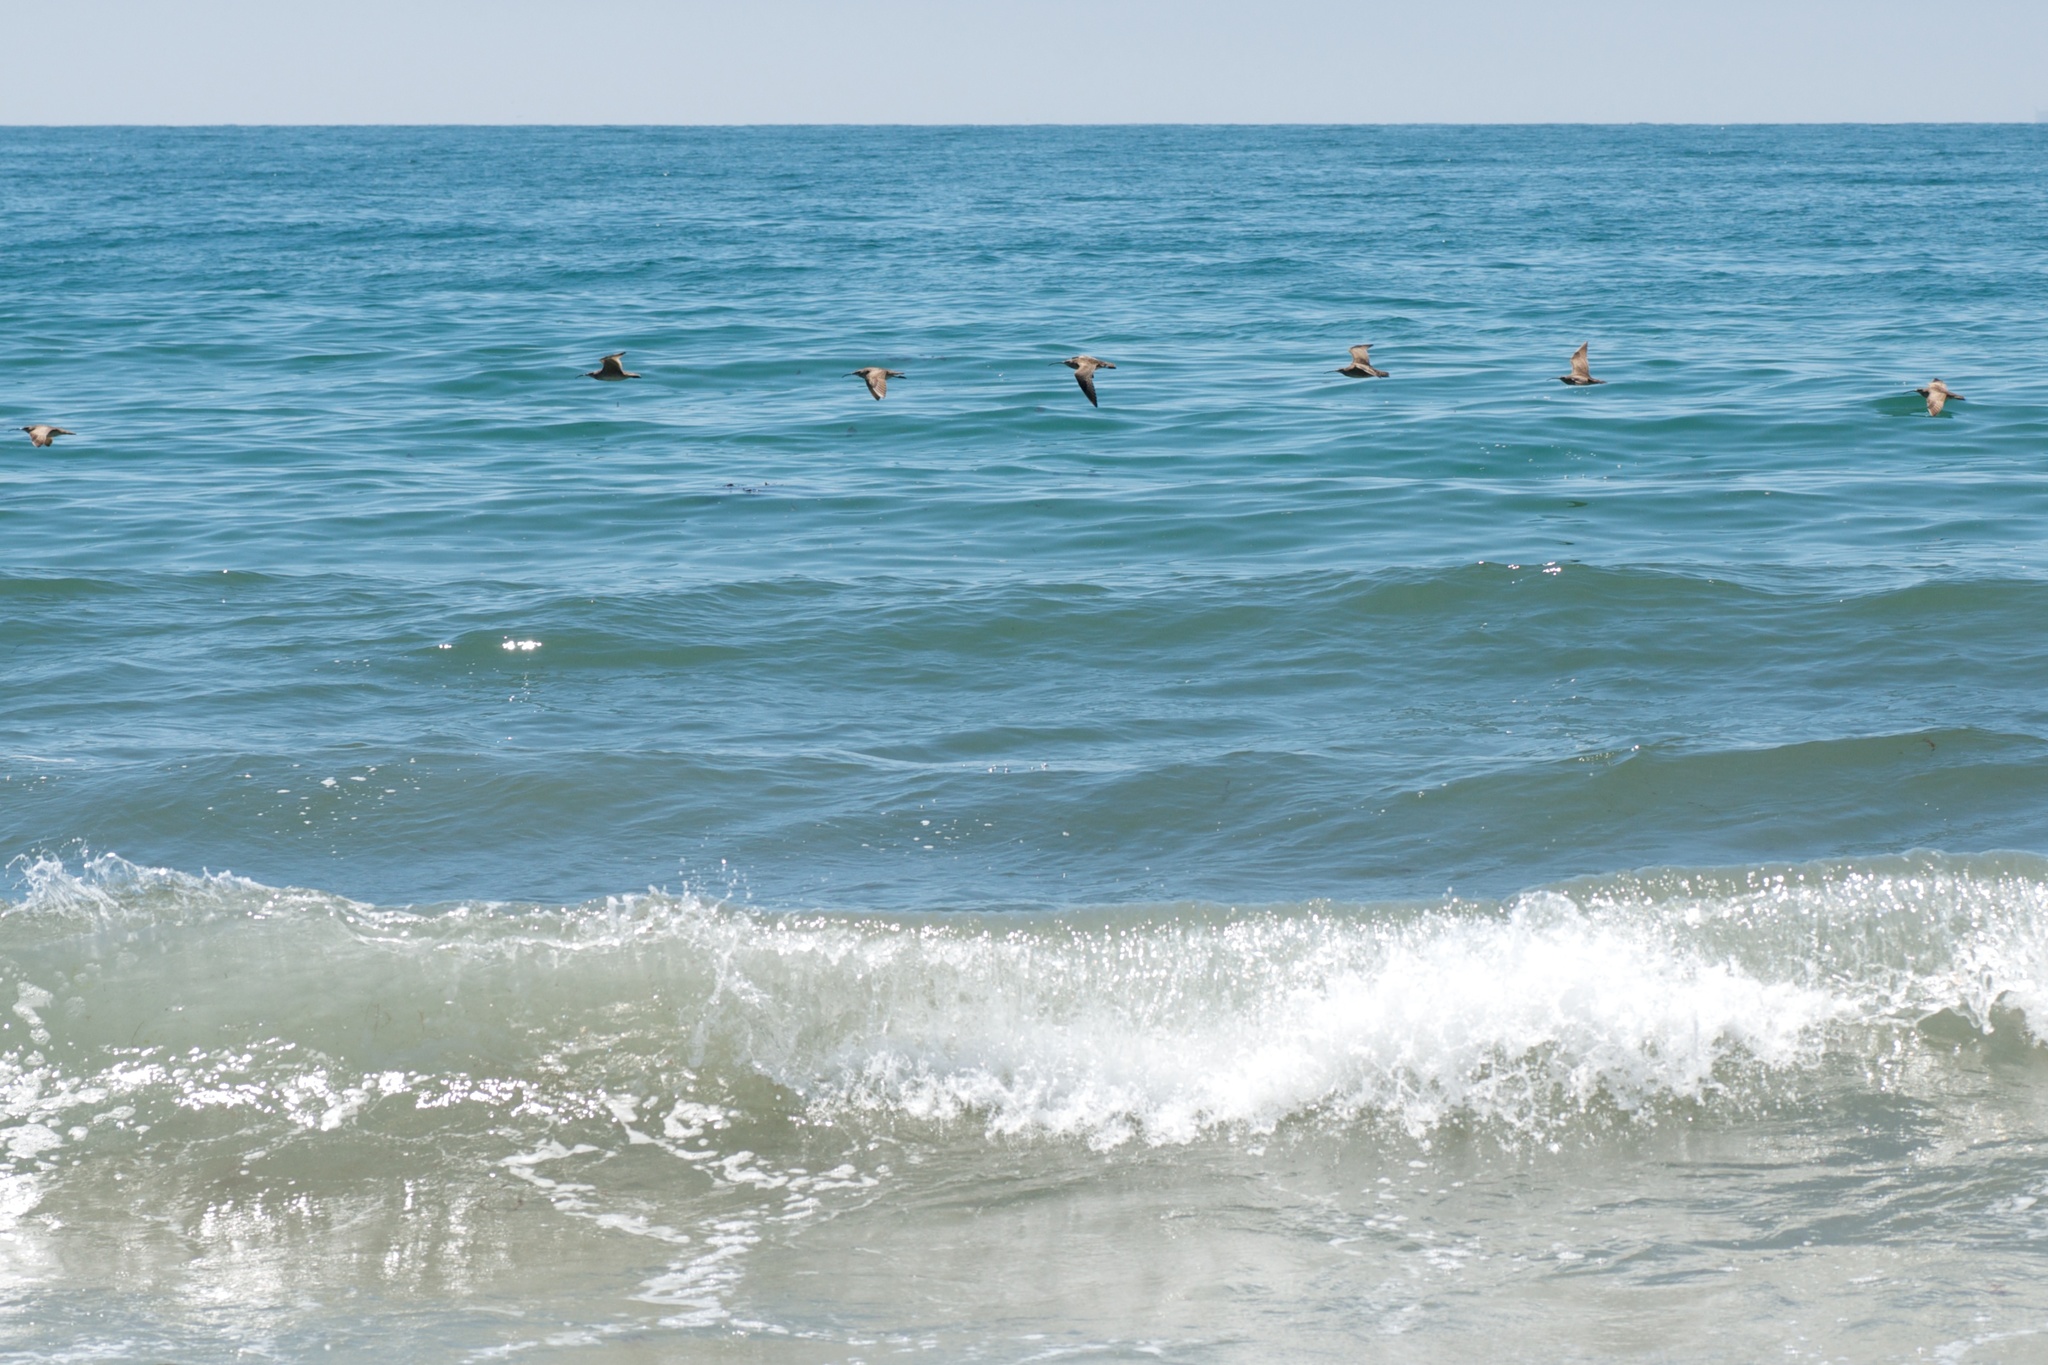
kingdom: Animalia
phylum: Chordata
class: Aves
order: Charadriiformes
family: Scolopacidae
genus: Numenius
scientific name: Numenius phaeopus
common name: Whimbrel
